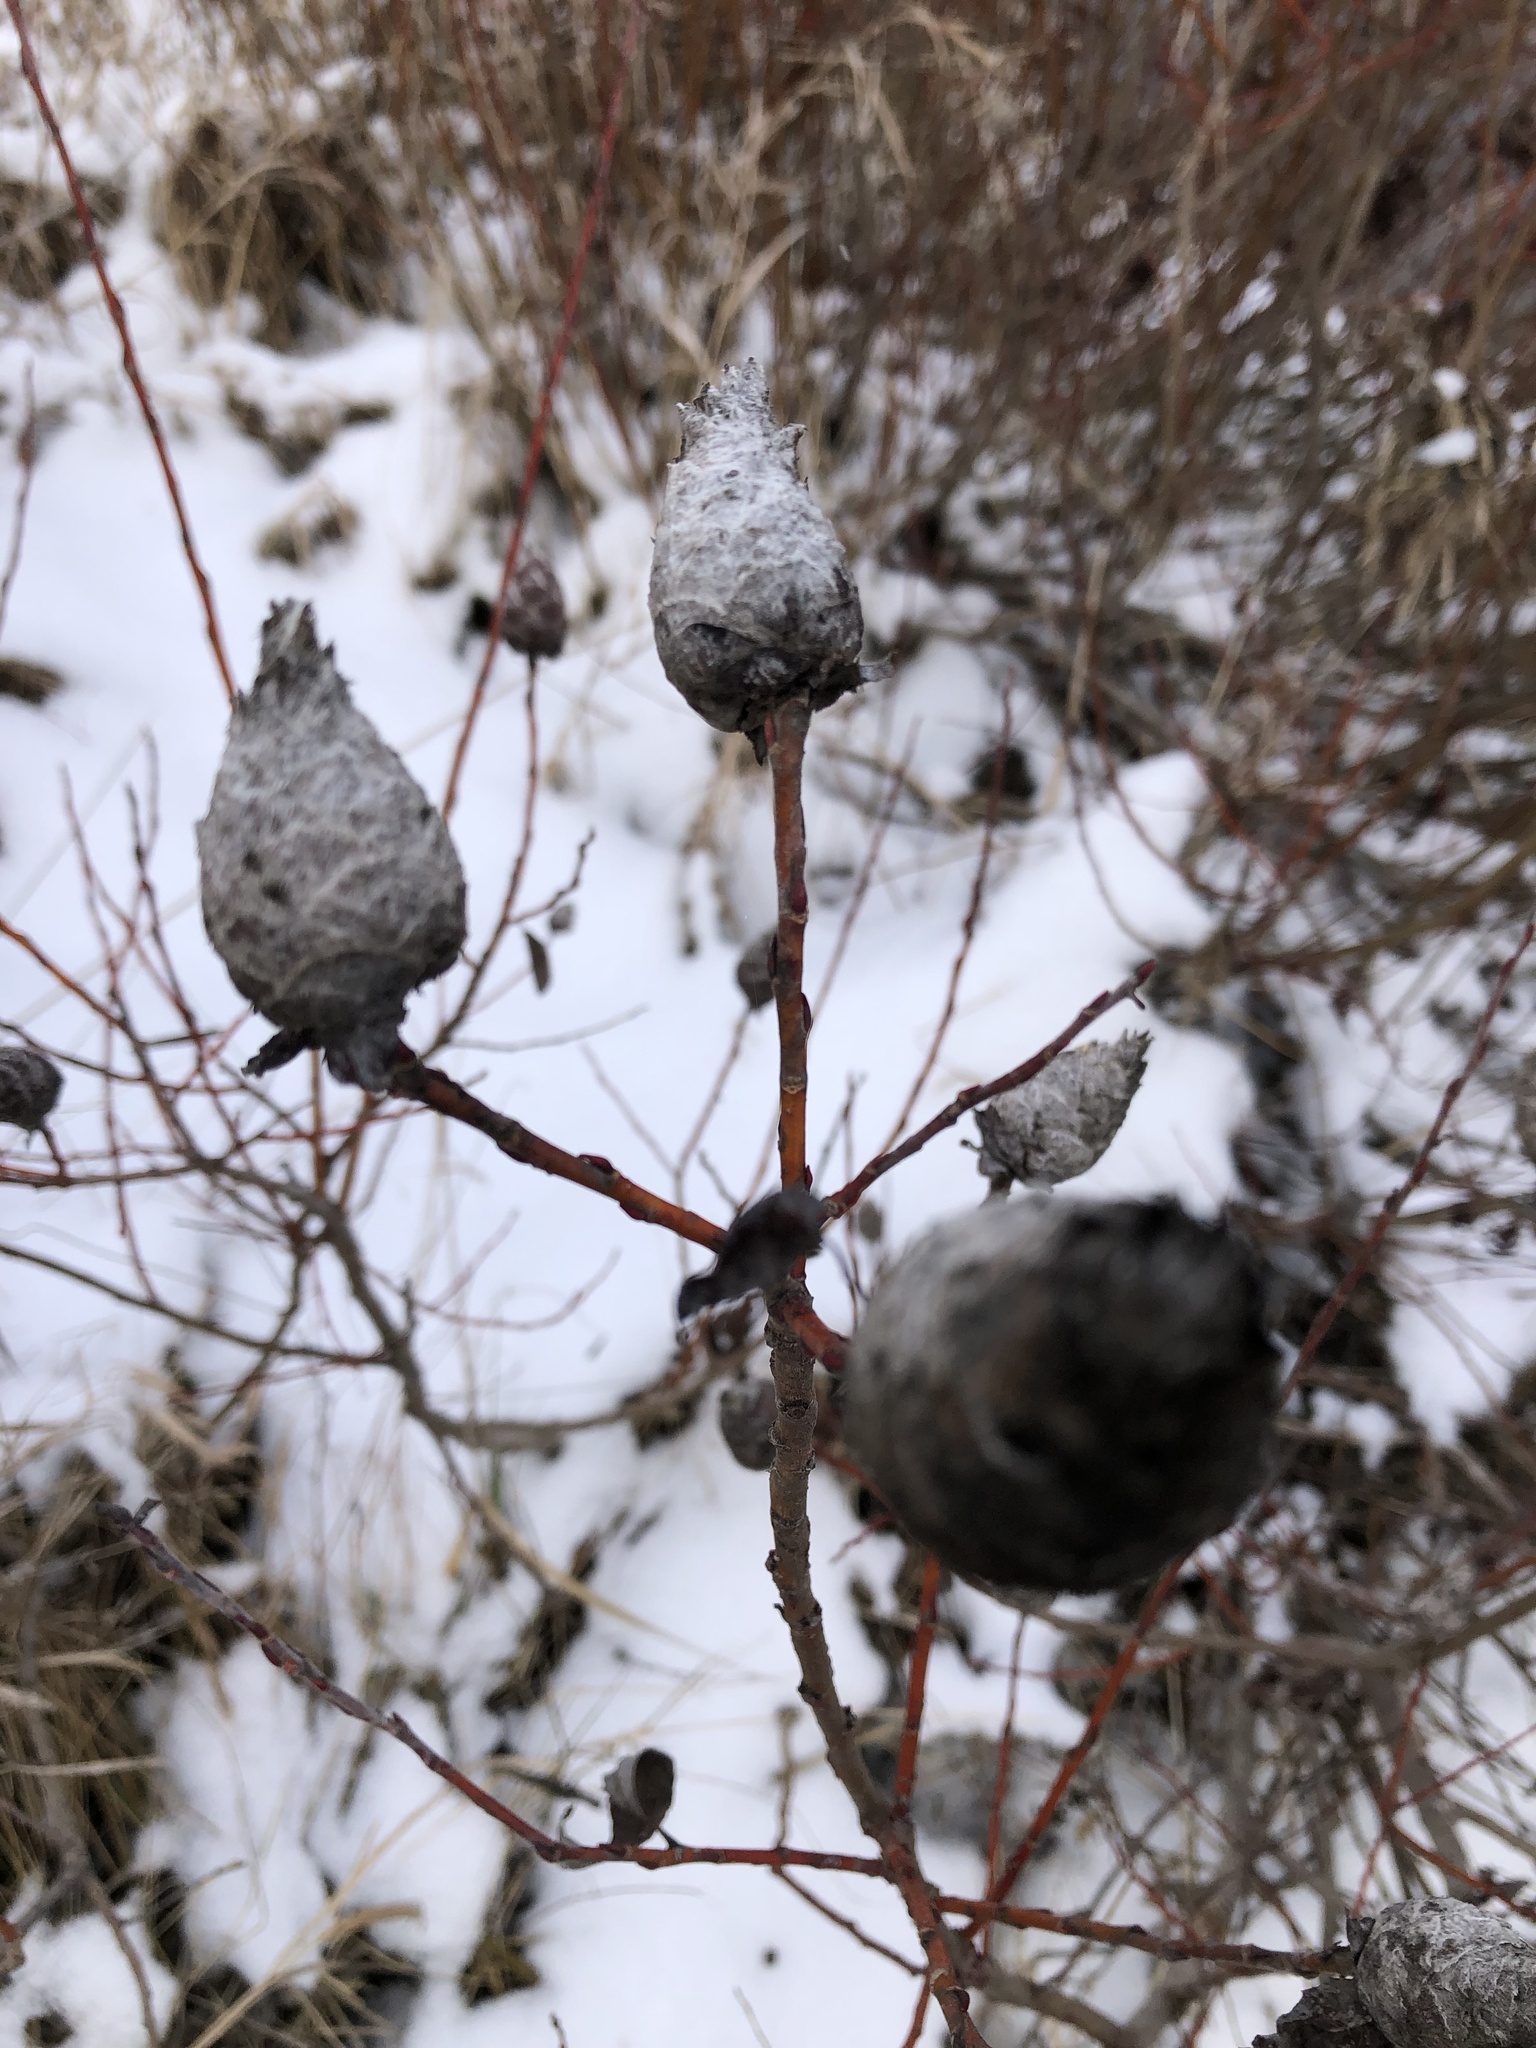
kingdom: Animalia
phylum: Arthropoda
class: Insecta
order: Diptera
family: Cecidomyiidae
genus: Rabdophaga
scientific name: Rabdophaga strobiloides
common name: Willow pinecone gall midge
